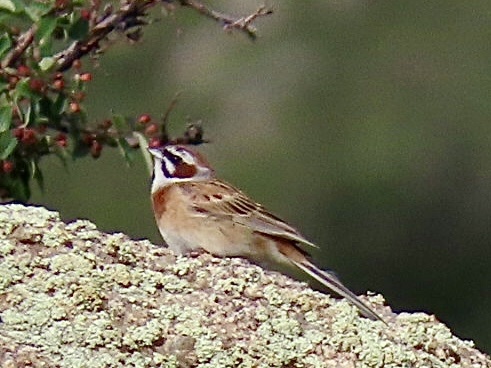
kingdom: Animalia
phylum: Chordata
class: Aves
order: Passeriformes
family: Emberizidae
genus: Emberiza
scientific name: Emberiza cioides
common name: Meadow bunting
